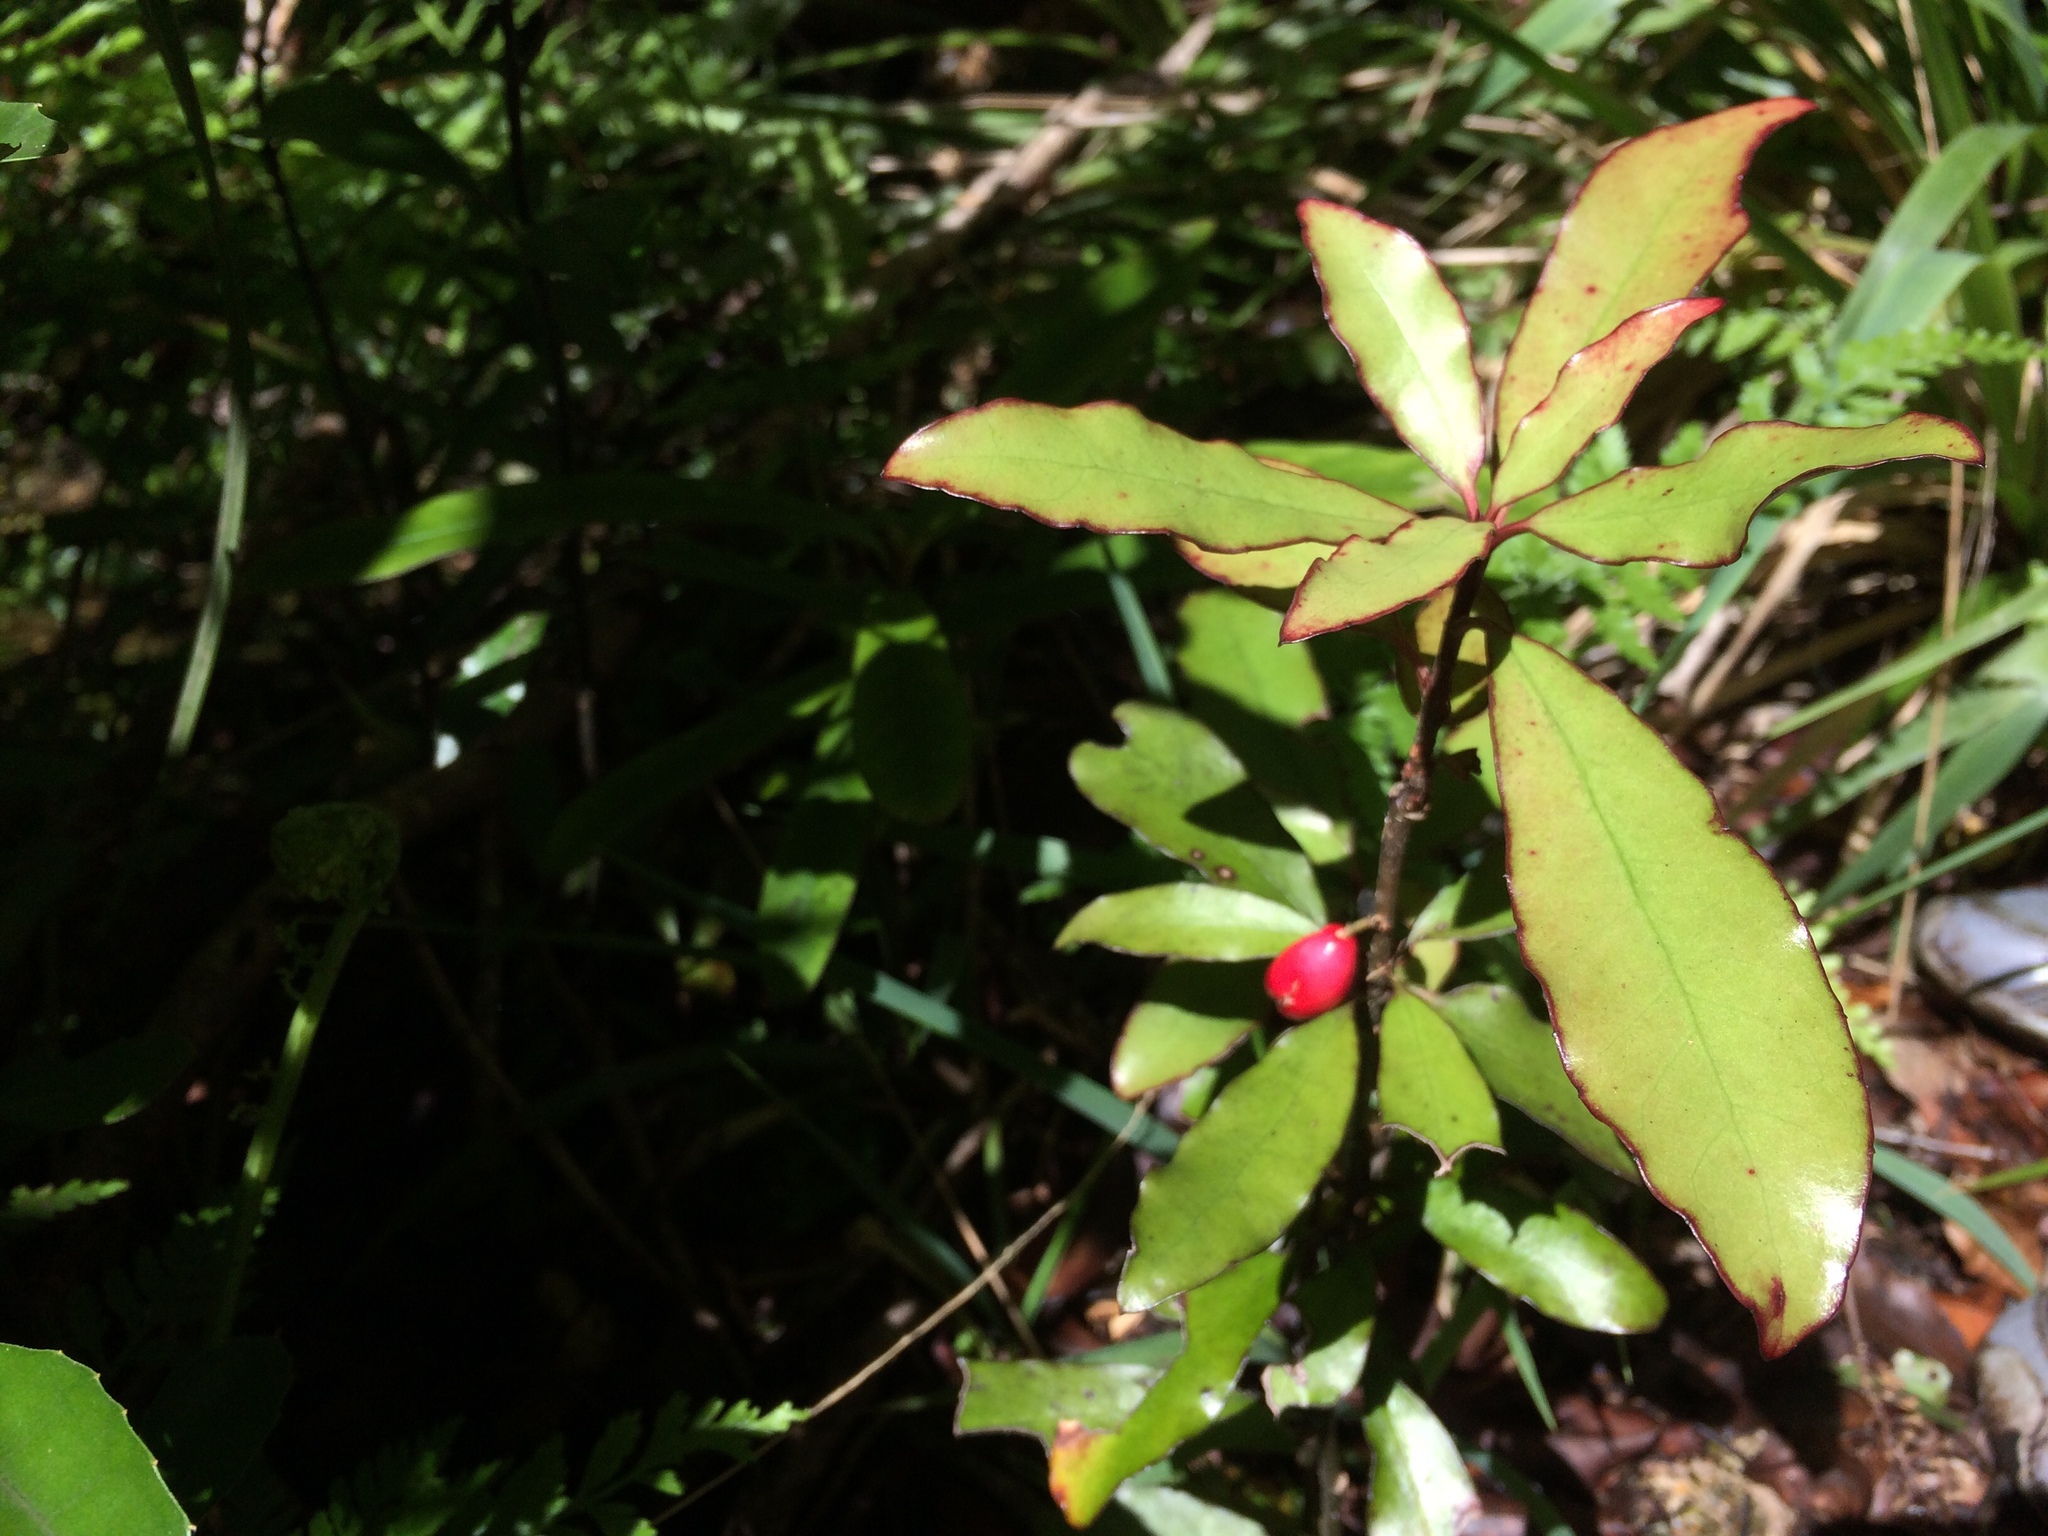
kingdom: Plantae
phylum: Tracheophyta
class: Magnoliopsida
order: Asterales
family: Alseuosmiaceae
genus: Alseuosmia
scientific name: Alseuosmia pusilla
